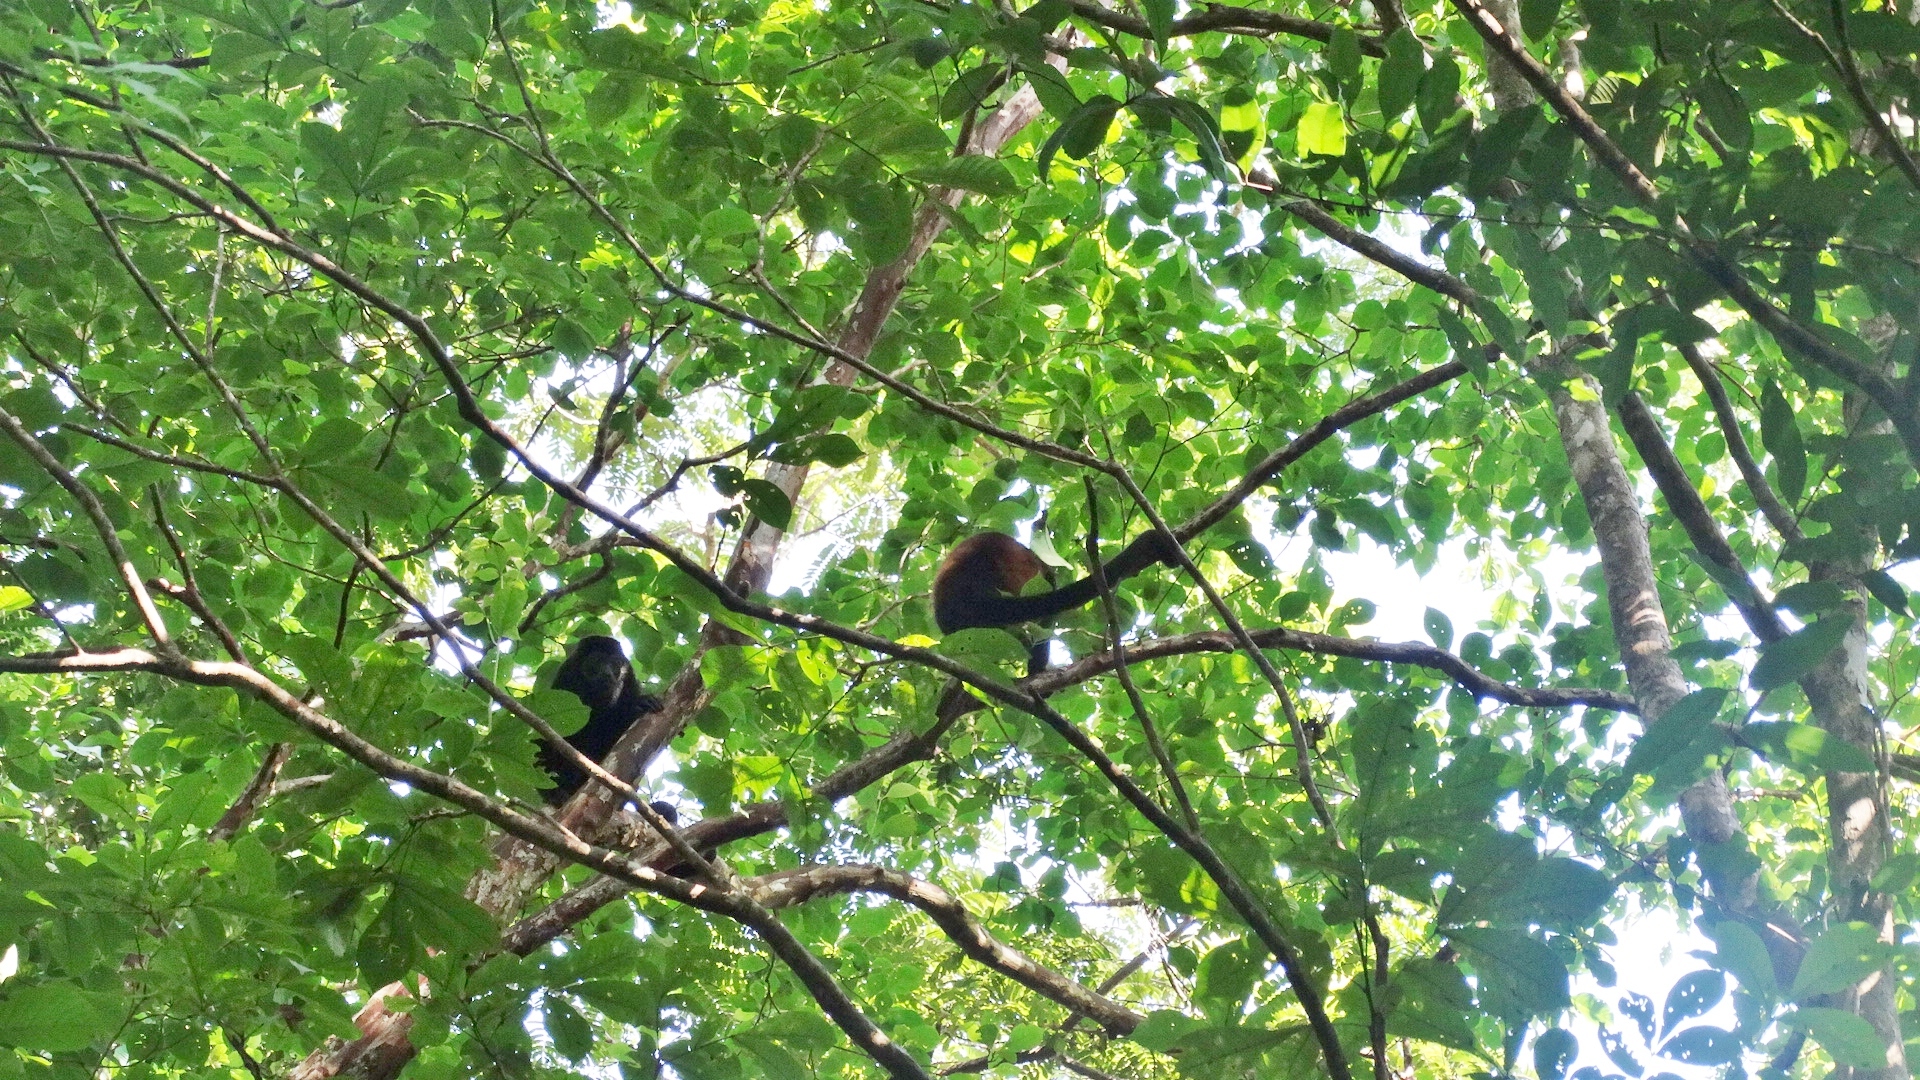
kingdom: Animalia
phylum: Chordata
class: Mammalia
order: Primates
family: Atelidae
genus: Alouatta
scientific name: Alouatta palliata
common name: Mantled howler
